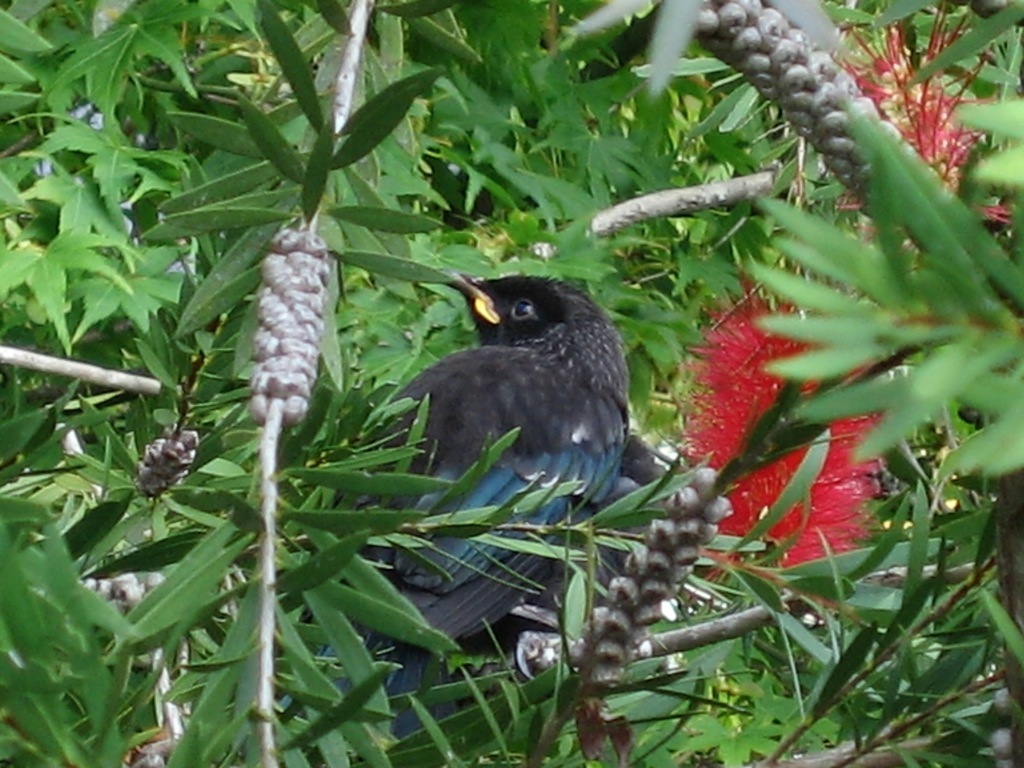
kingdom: Animalia
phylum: Chordata
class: Aves
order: Passeriformes
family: Meliphagidae
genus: Prosthemadera
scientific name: Prosthemadera novaeseelandiae
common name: Tui
